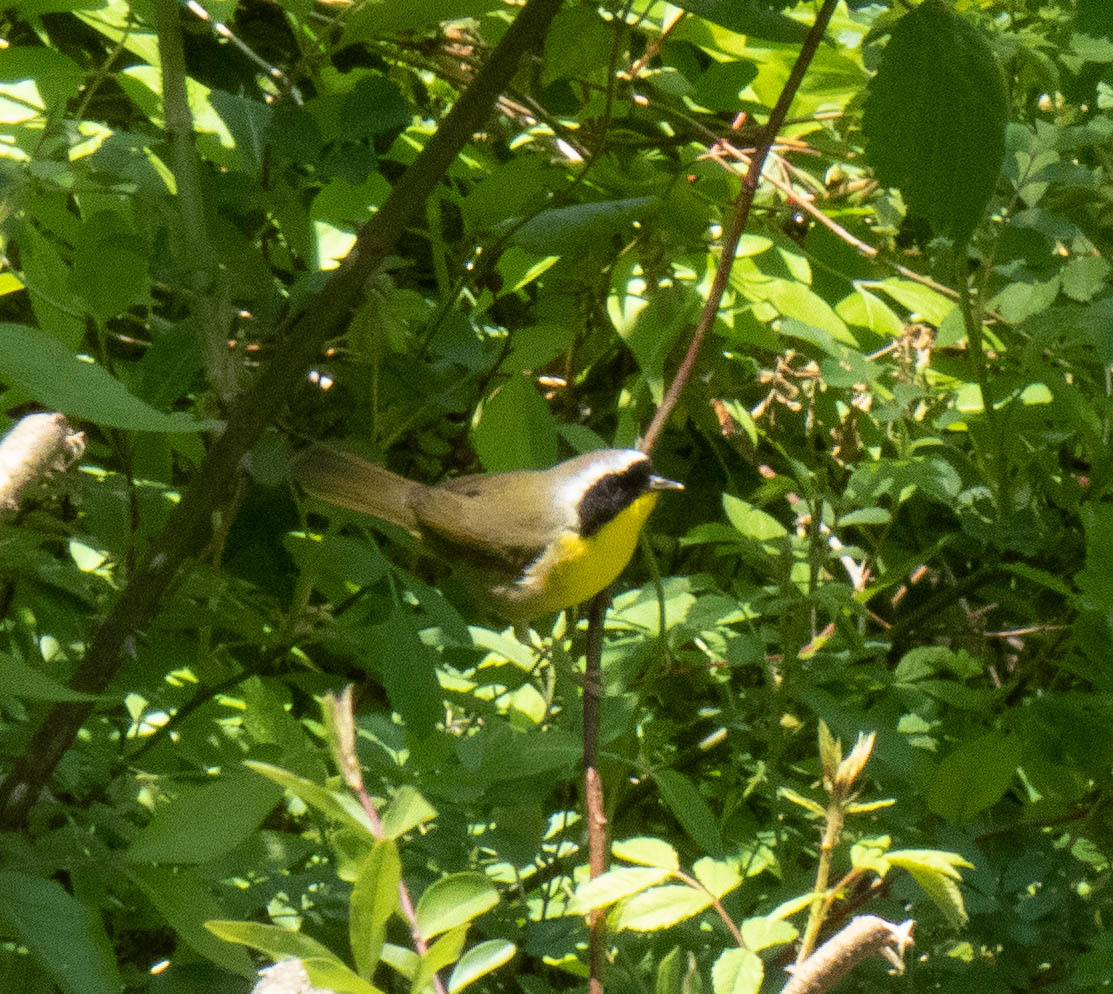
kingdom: Animalia
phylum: Chordata
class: Aves
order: Passeriformes
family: Parulidae
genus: Geothlypis
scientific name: Geothlypis trichas
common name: Common yellowthroat
